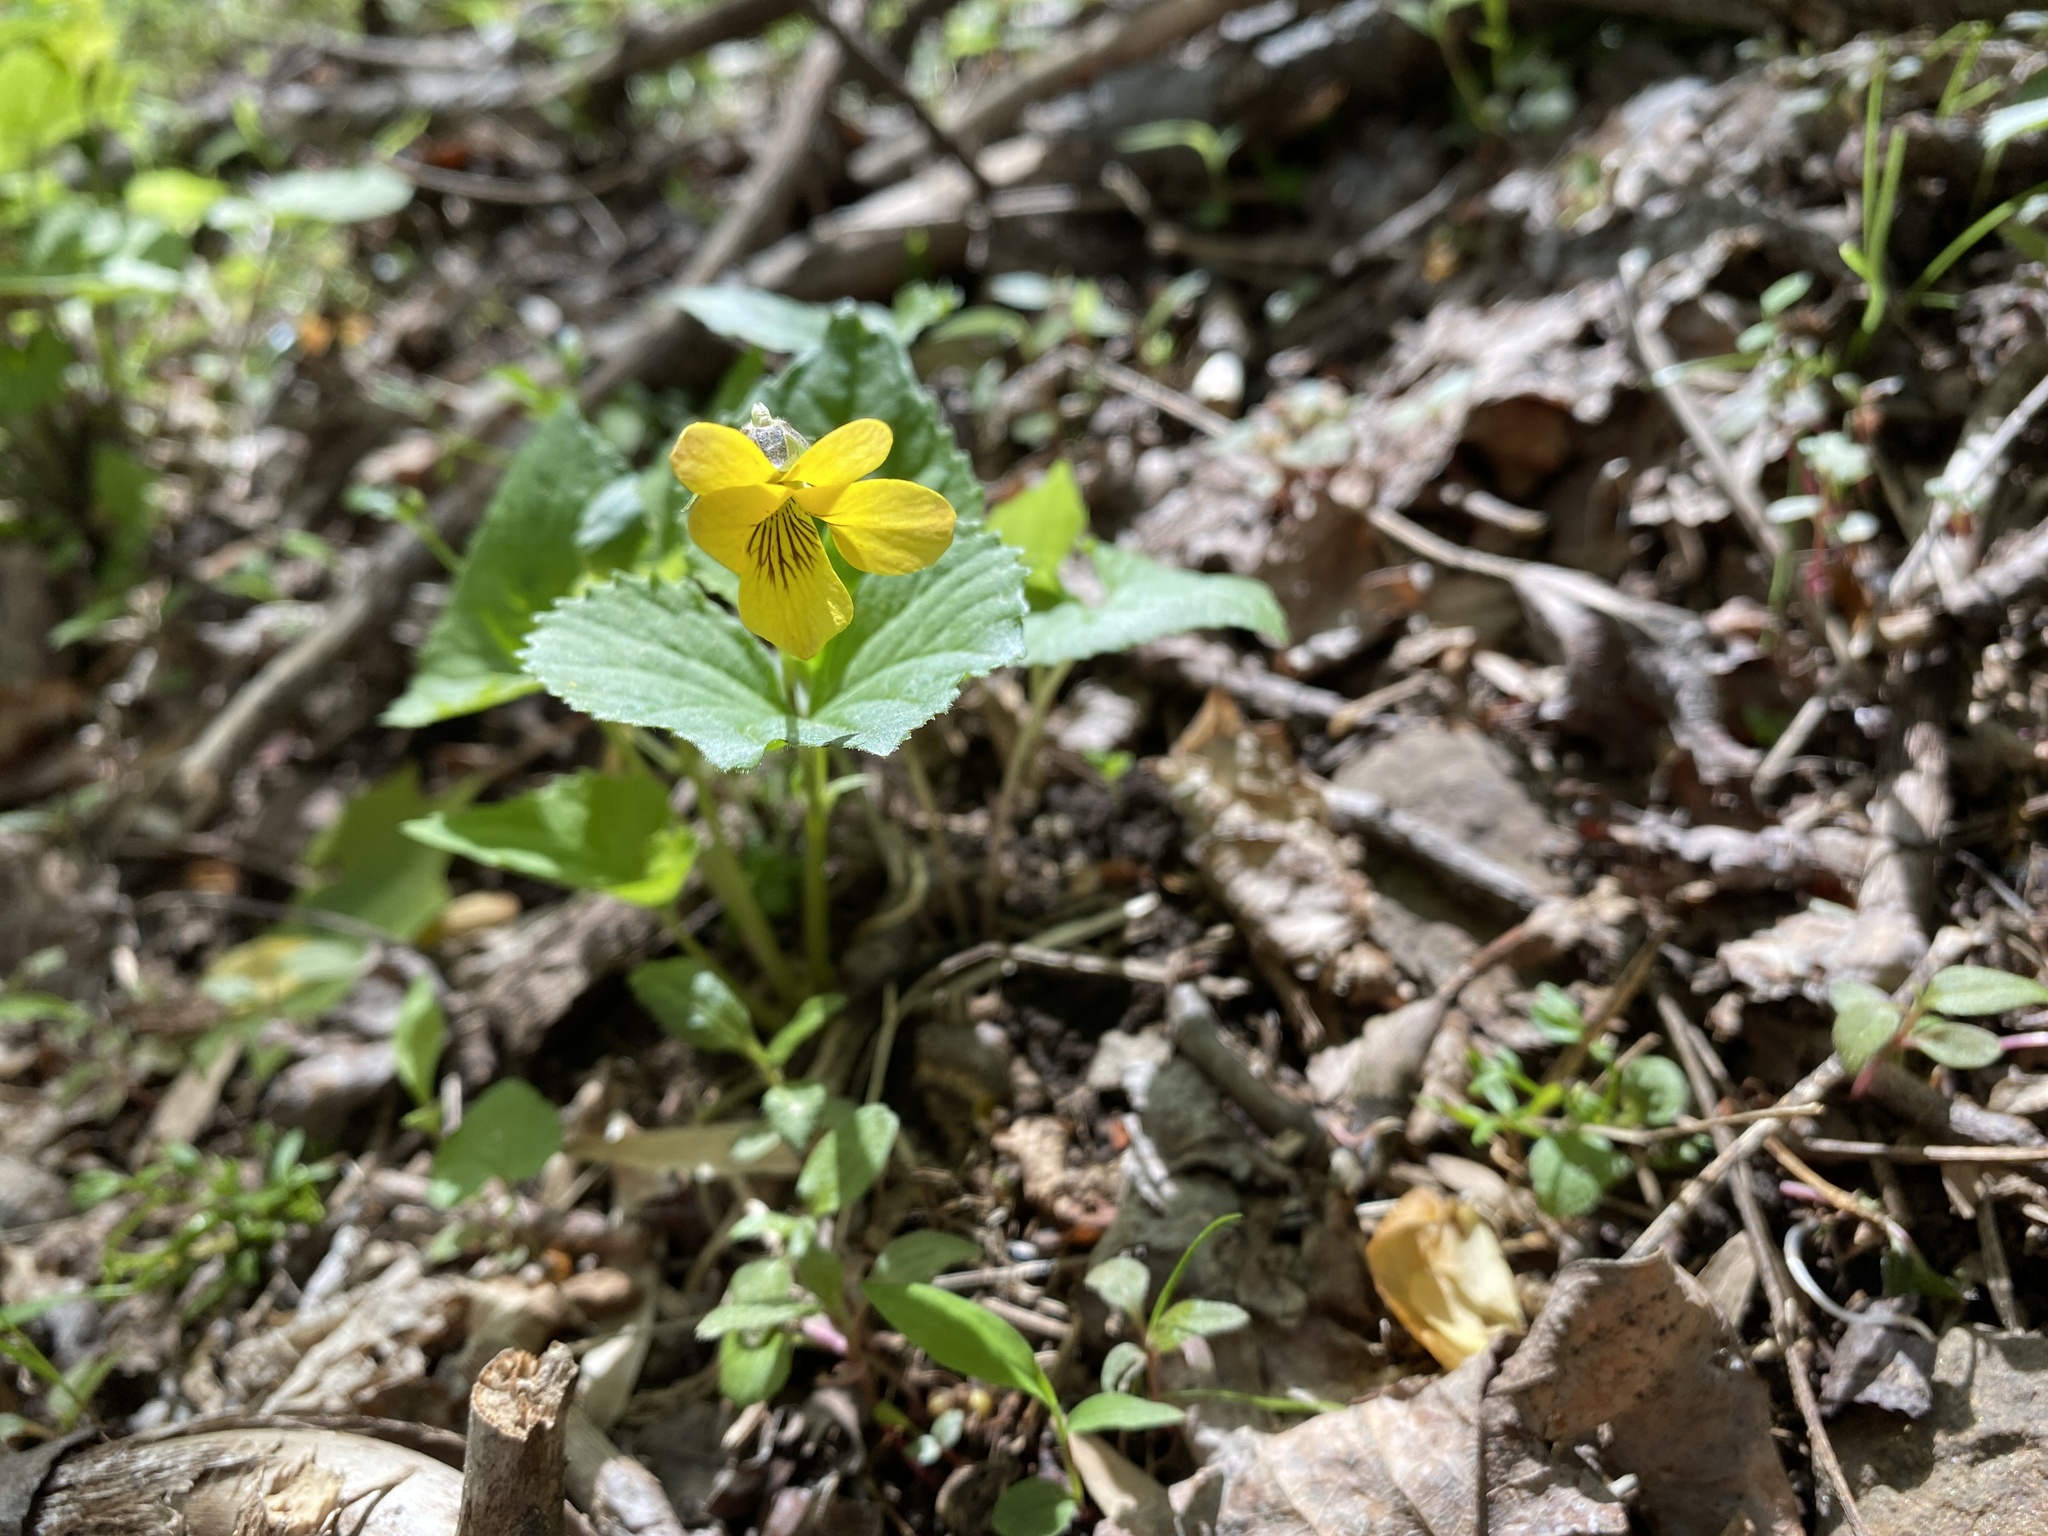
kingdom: Plantae
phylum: Tracheophyta
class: Magnoliopsida
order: Malpighiales
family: Violaceae
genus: Viola
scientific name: Viola eriocarpa
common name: Smooth yellow violet
